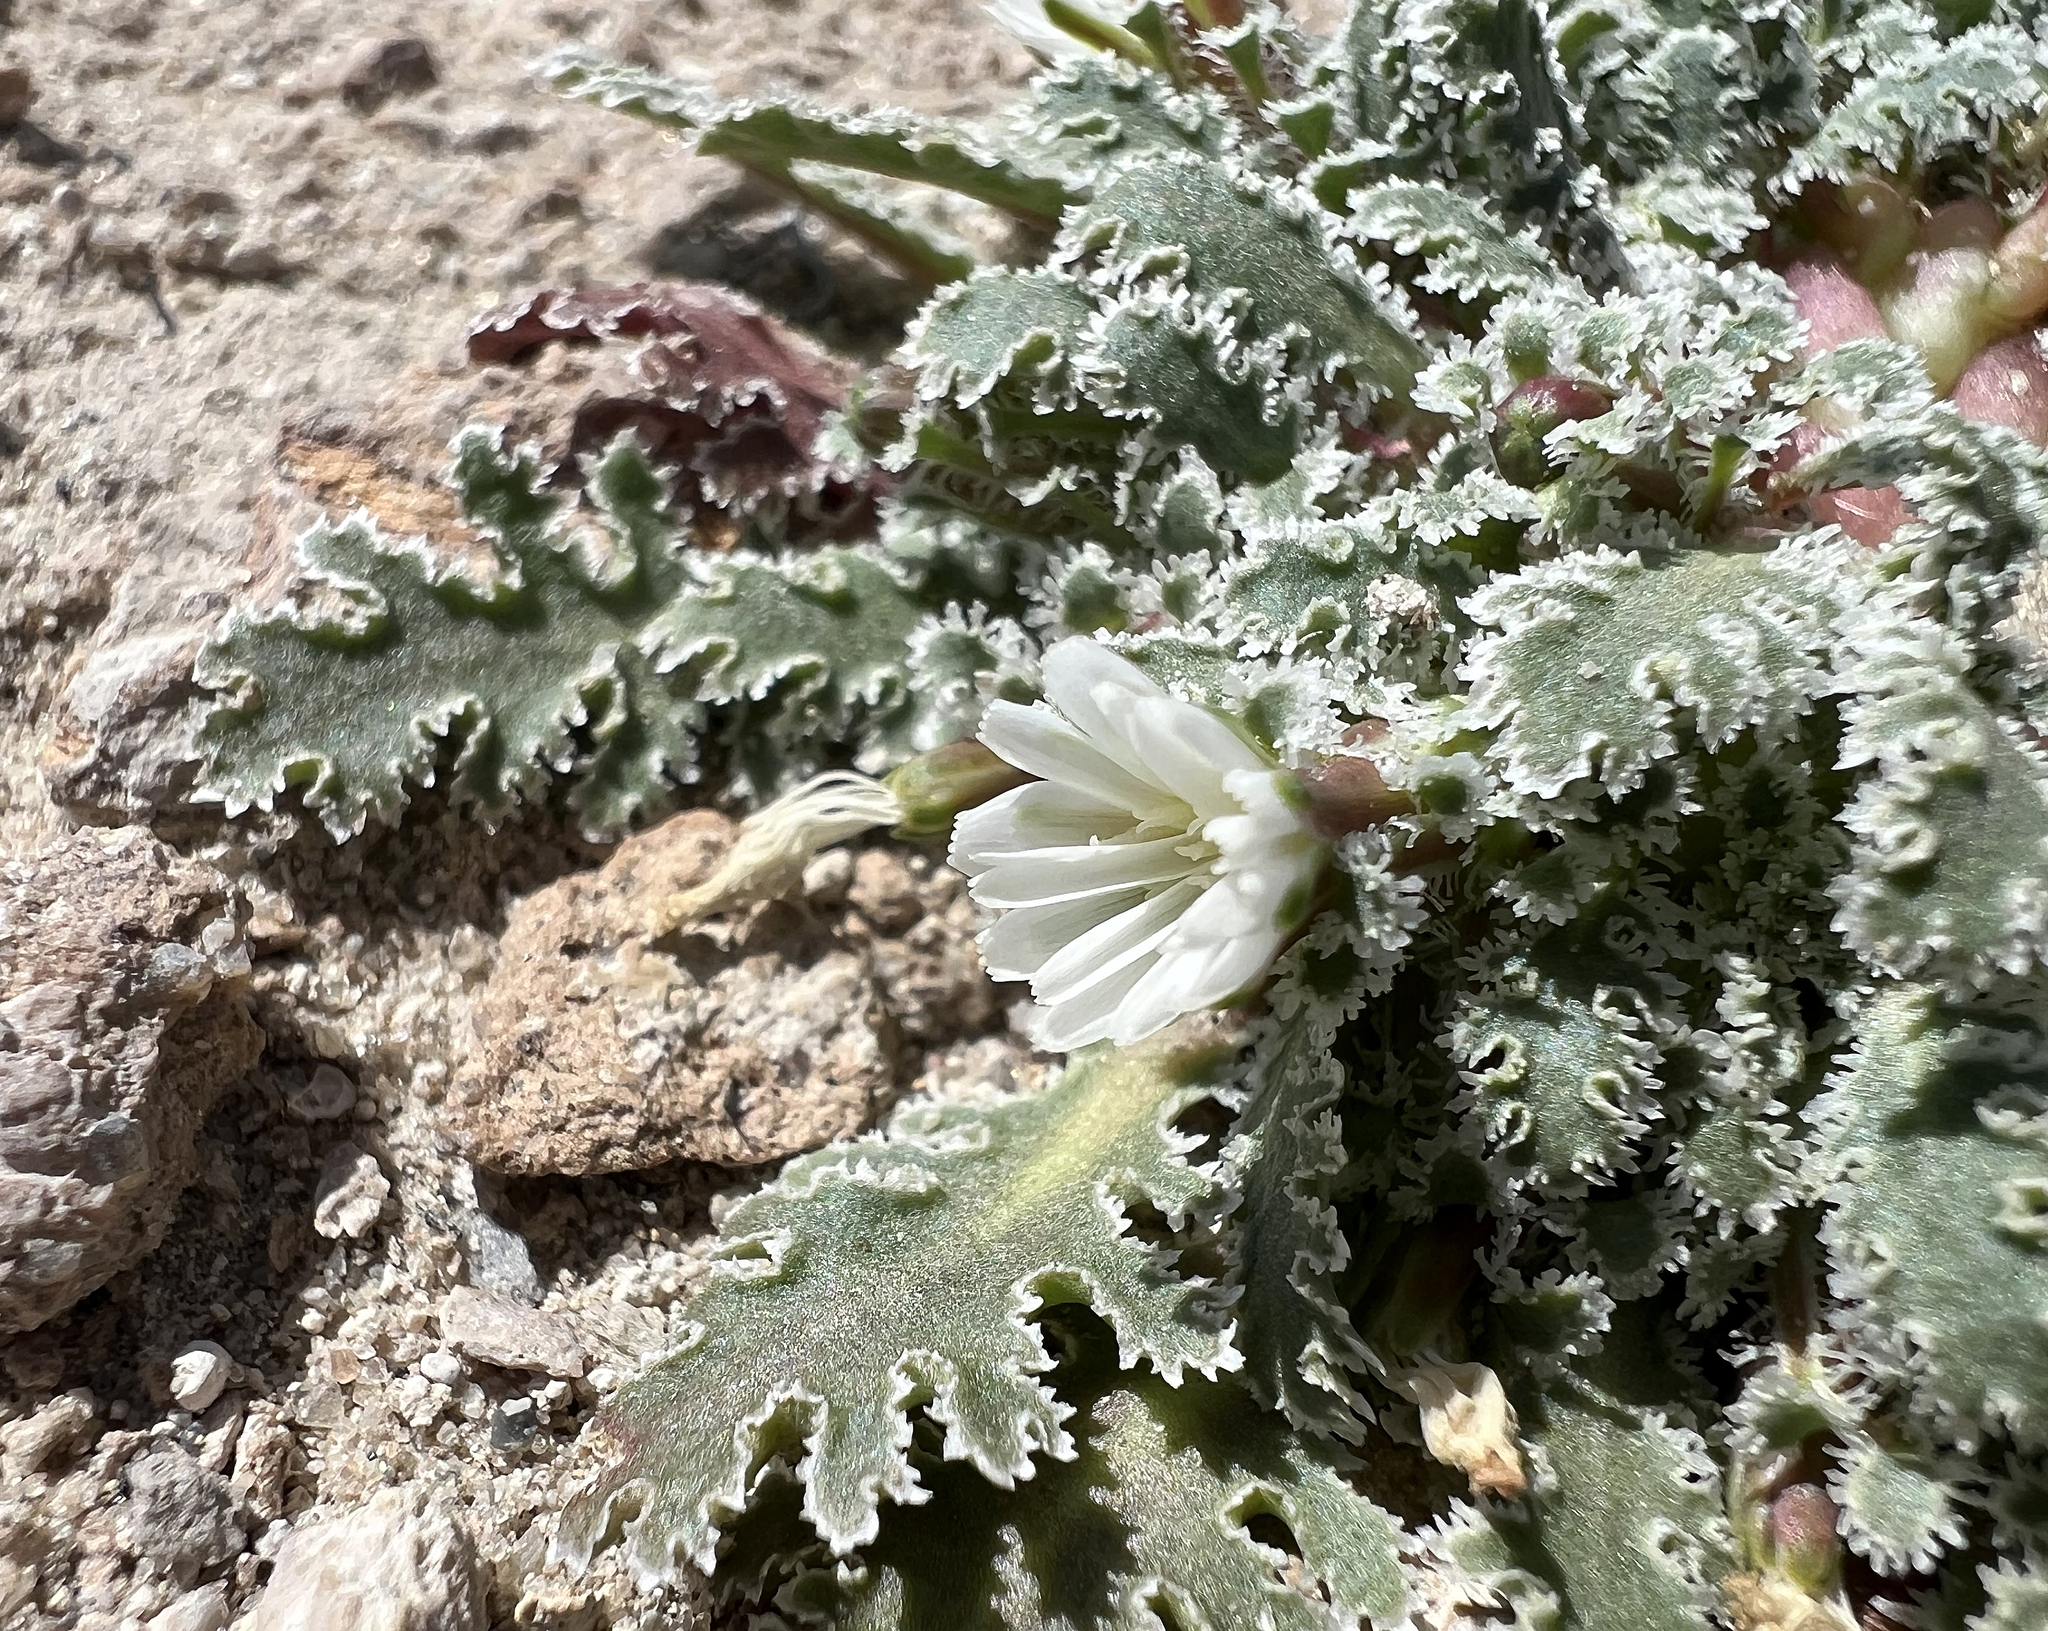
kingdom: Plantae
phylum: Tracheophyta
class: Magnoliopsida
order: Asterales
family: Asteraceae
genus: Glyptopleura
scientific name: Glyptopleura marginata
